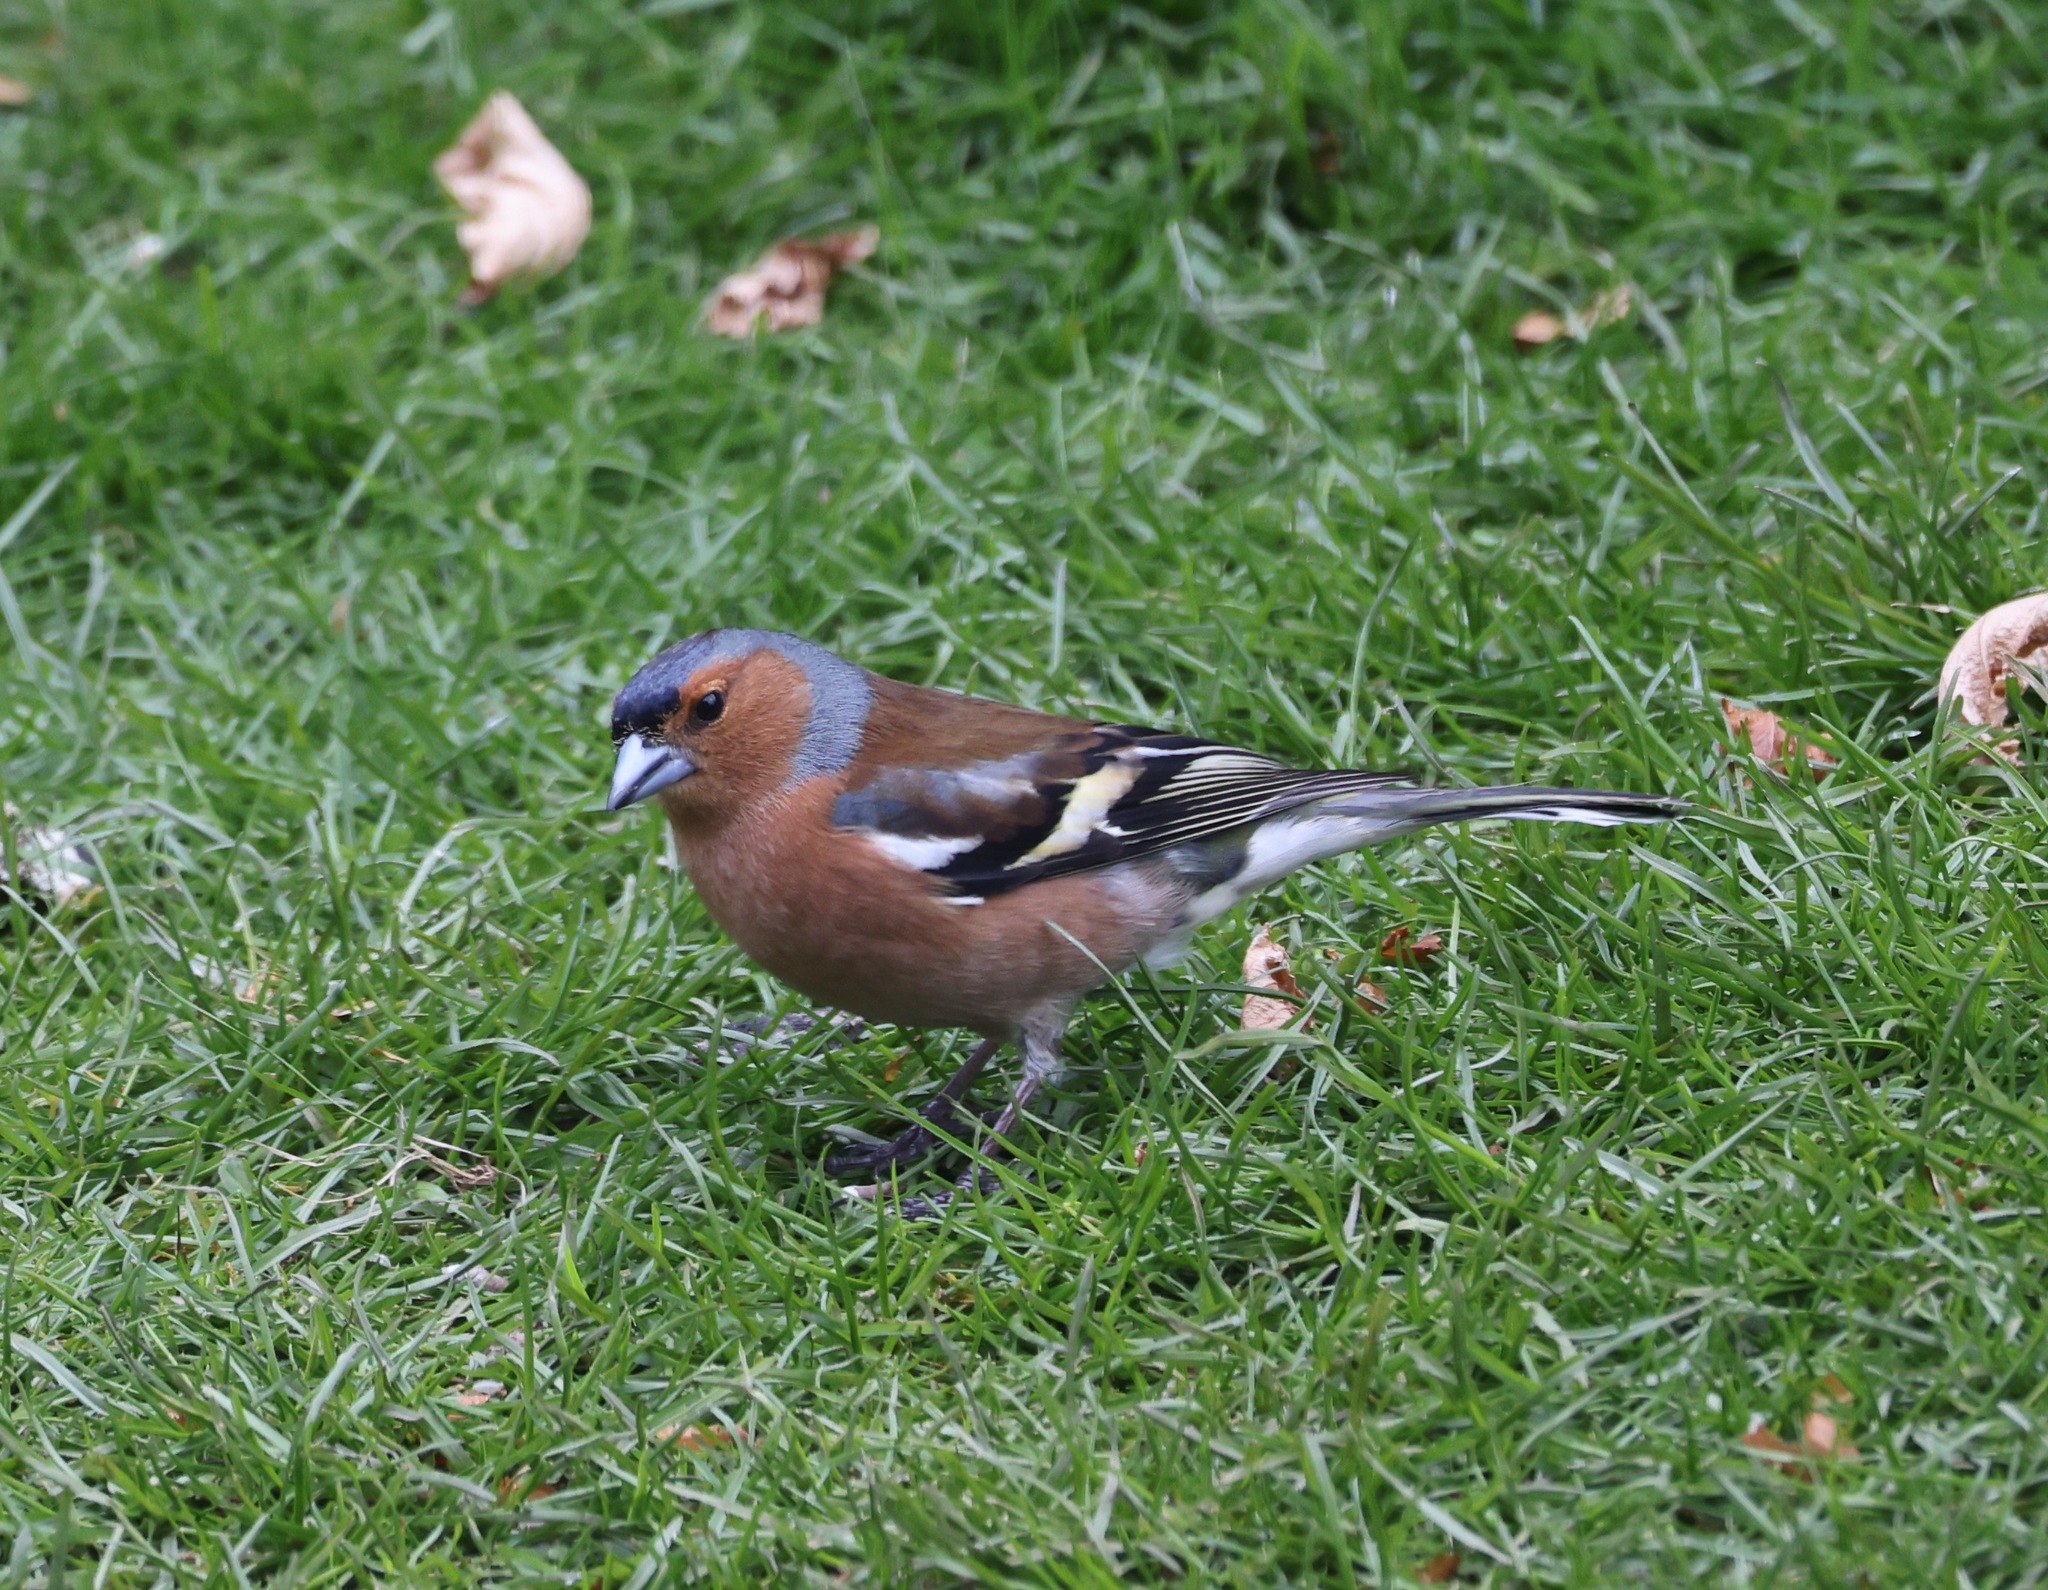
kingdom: Animalia
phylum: Chordata
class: Aves
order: Passeriformes
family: Fringillidae
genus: Fringilla
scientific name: Fringilla coelebs
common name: Common chaffinch
